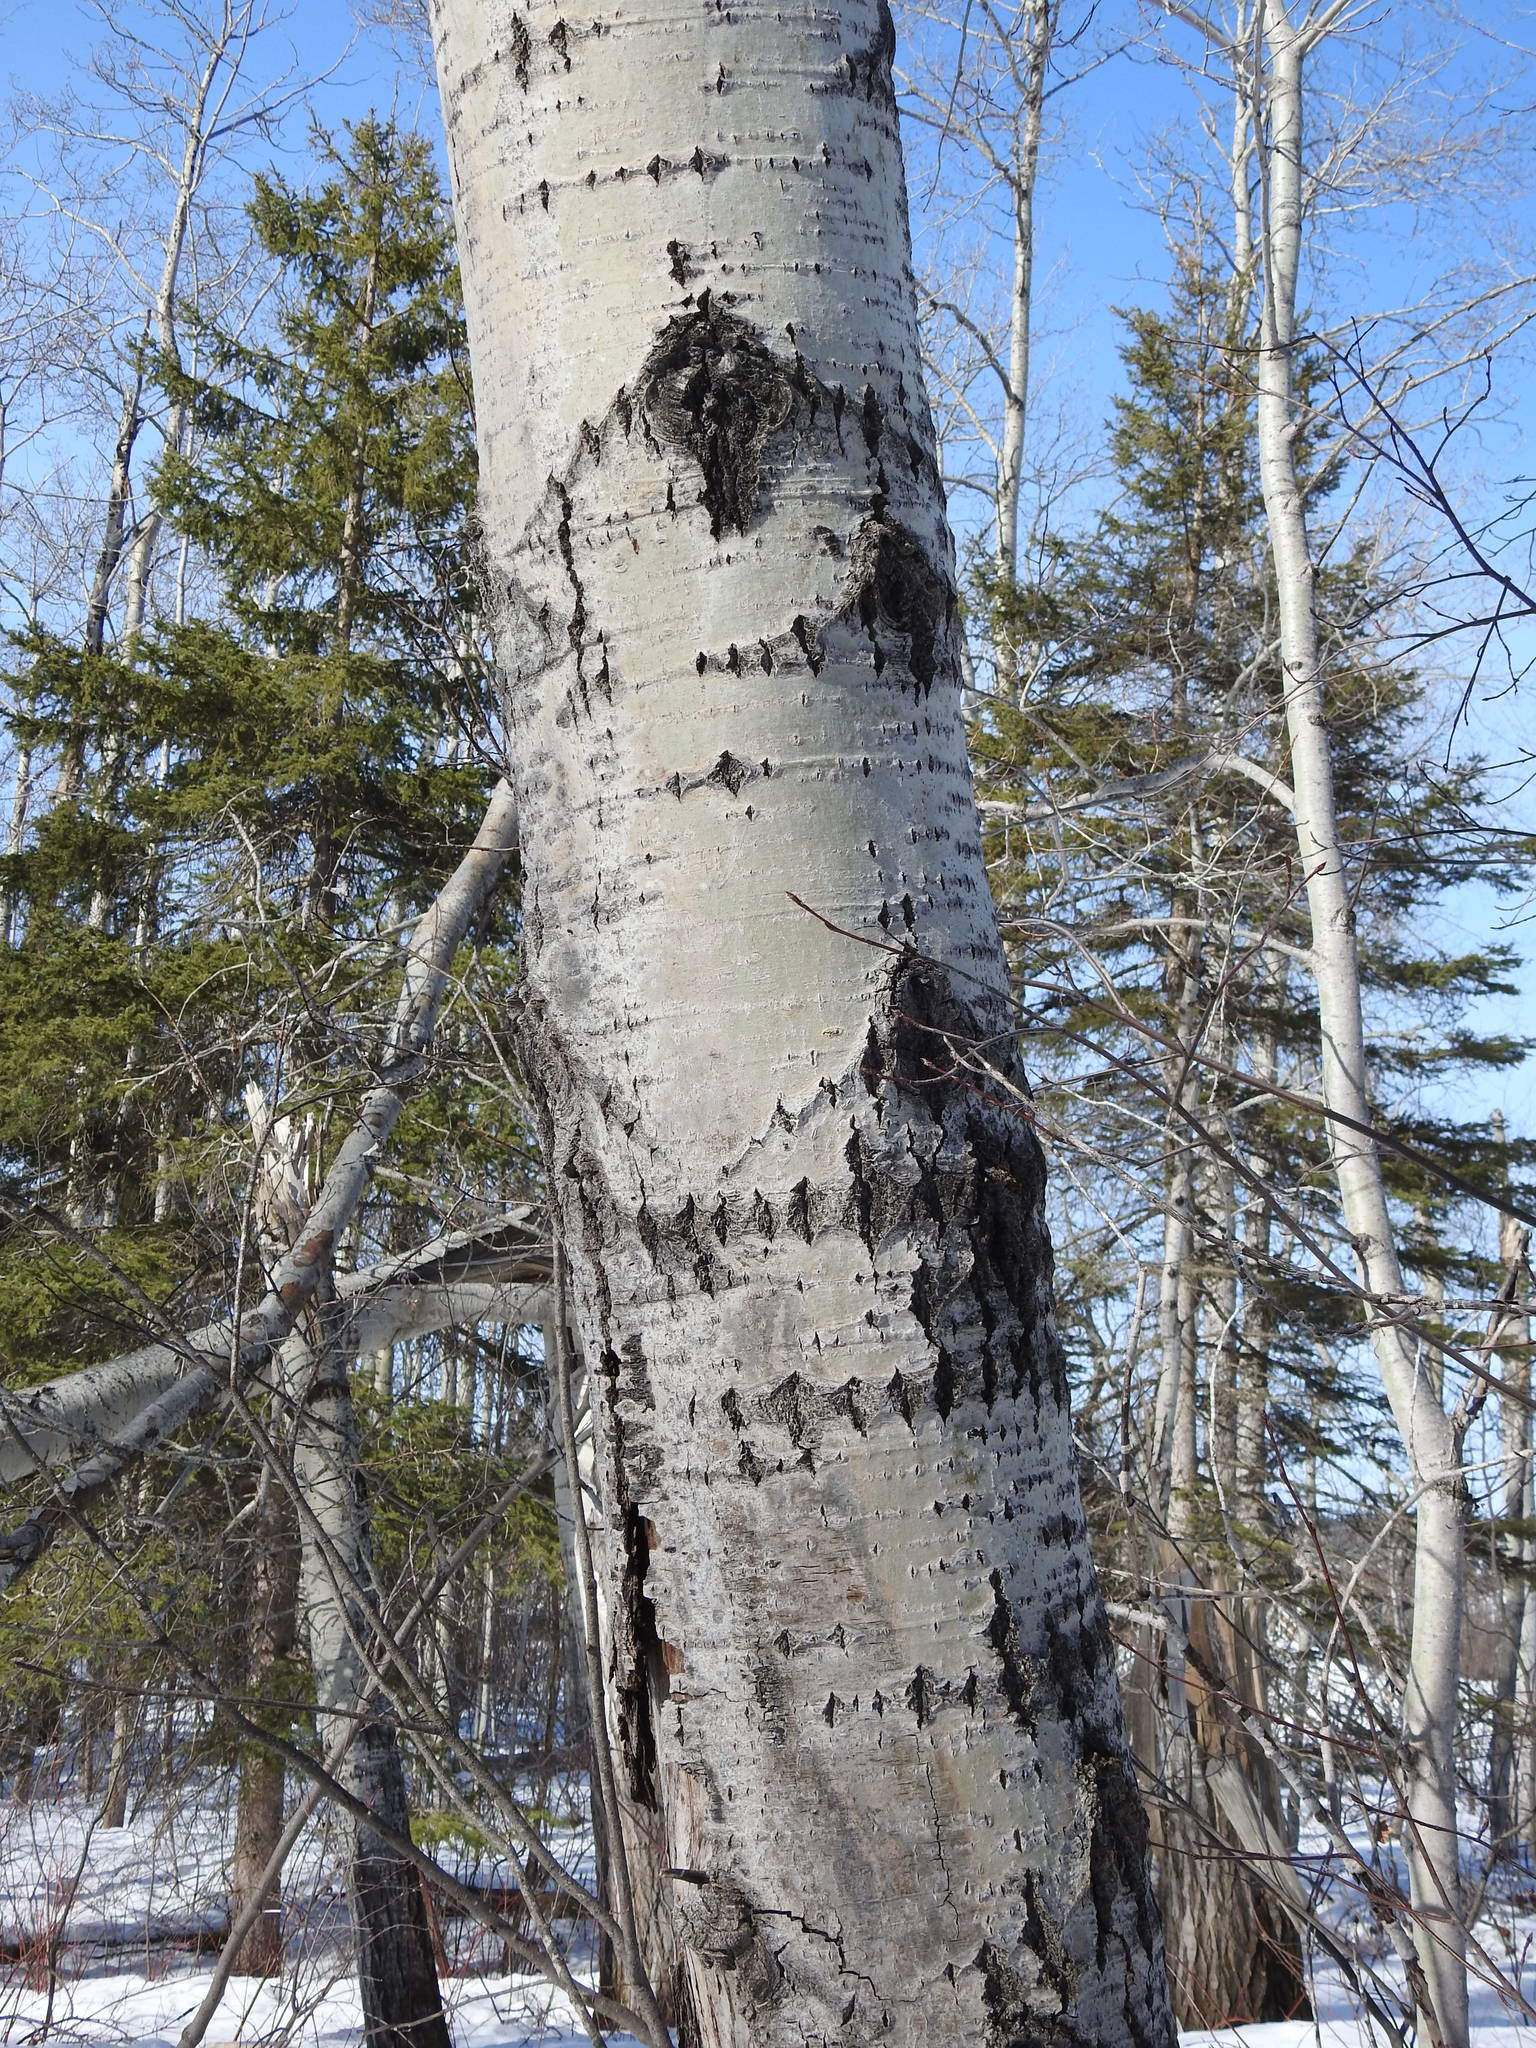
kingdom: Plantae
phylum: Tracheophyta
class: Magnoliopsida
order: Malpighiales
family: Salicaceae
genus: Populus
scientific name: Populus tremuloides
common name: Quaking aspen
